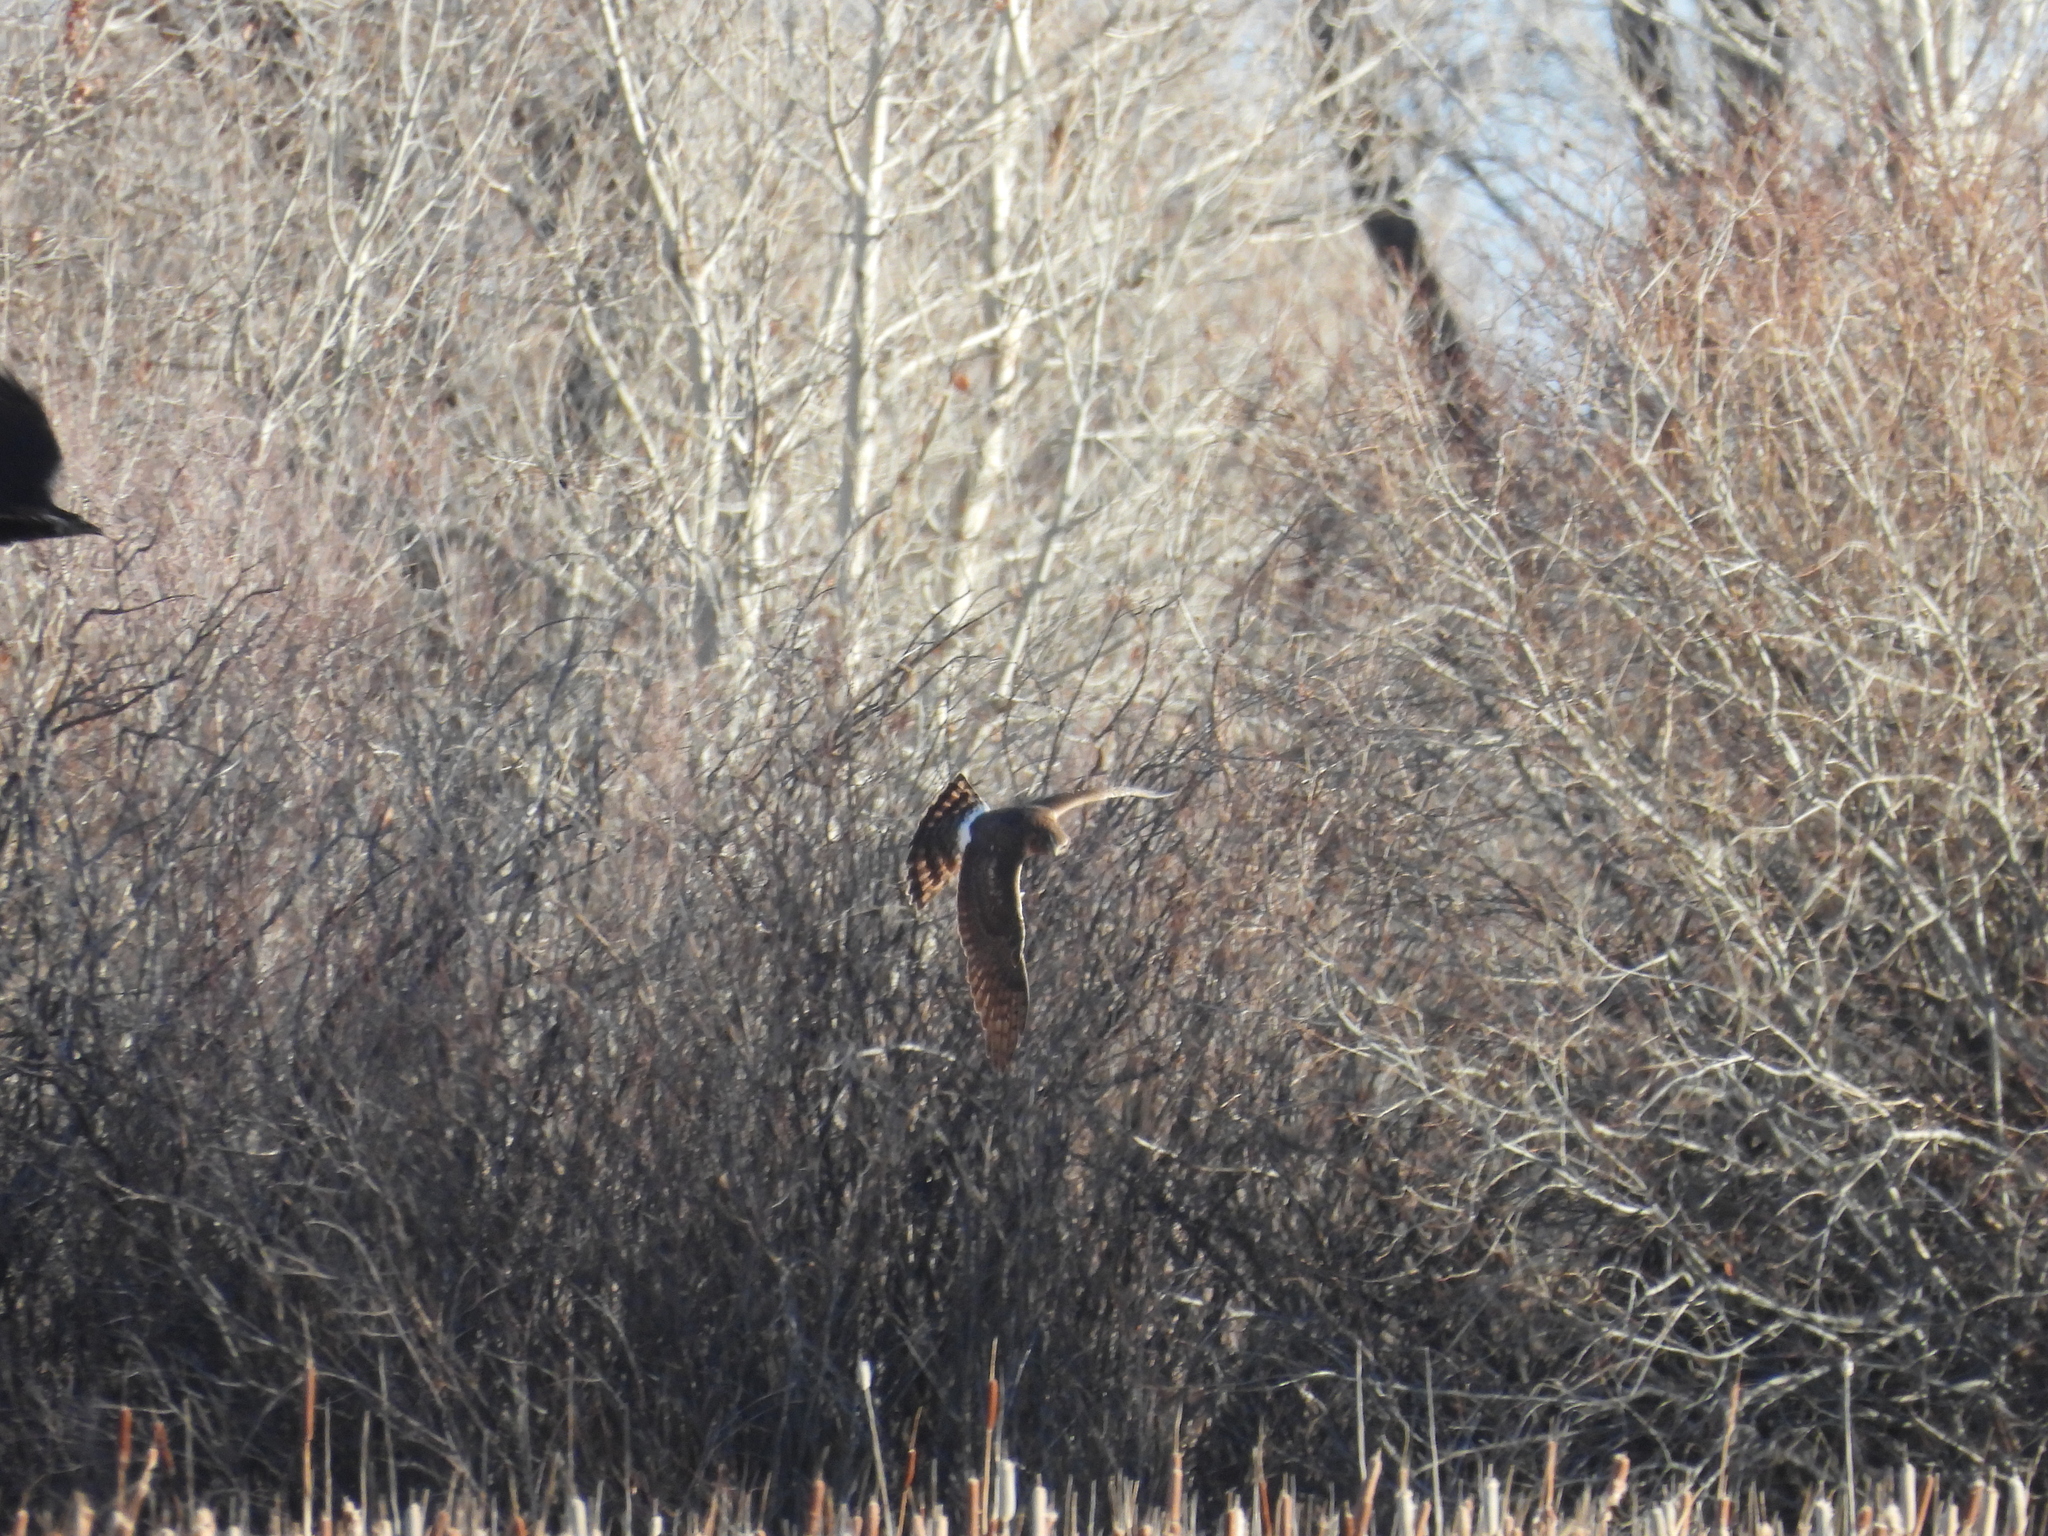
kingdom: Animalia
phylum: Chordata
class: Aves
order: Accipitriformes
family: Accipitridae
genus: Circus
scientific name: Circus cyaneus
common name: Hen harrier
